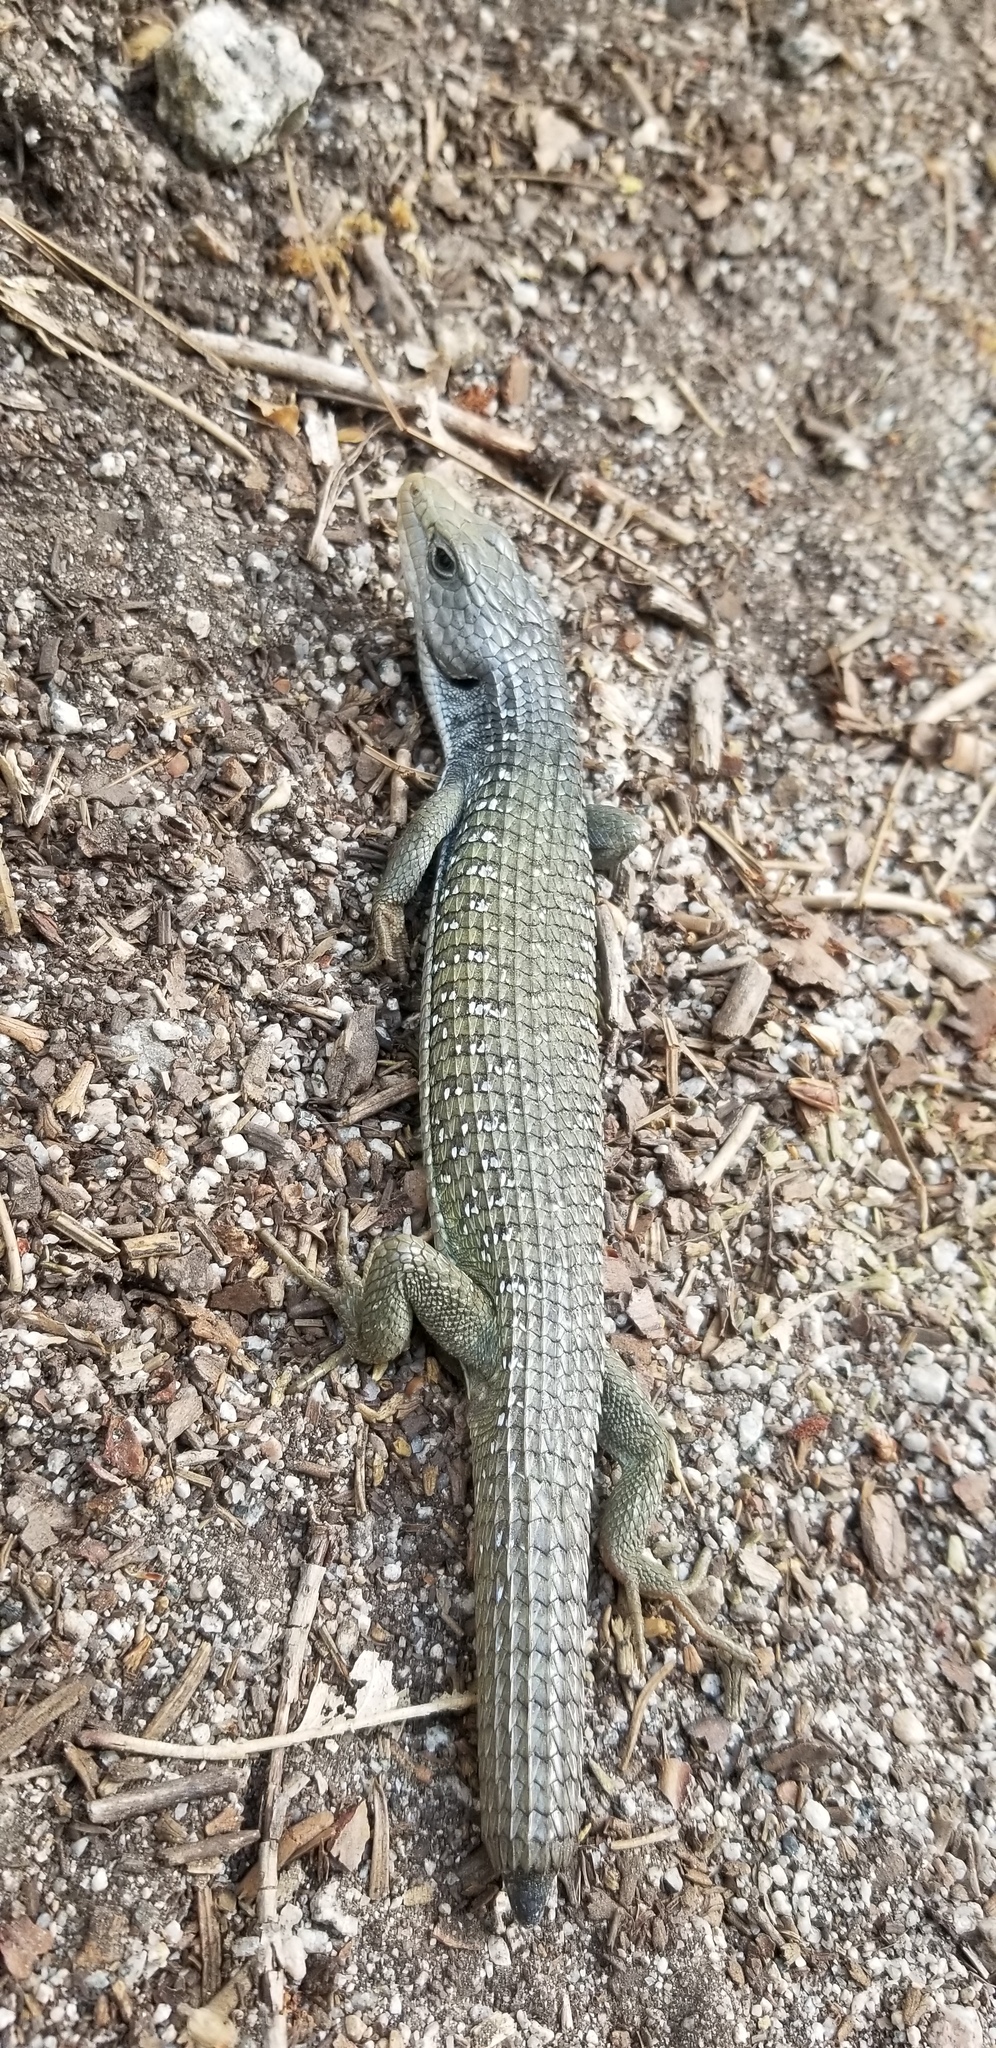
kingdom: Animalia
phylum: Chordata
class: Squamata
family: Anguidae
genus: Elgaria
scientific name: Elgaria coerulea
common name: Northern alligator lizard
